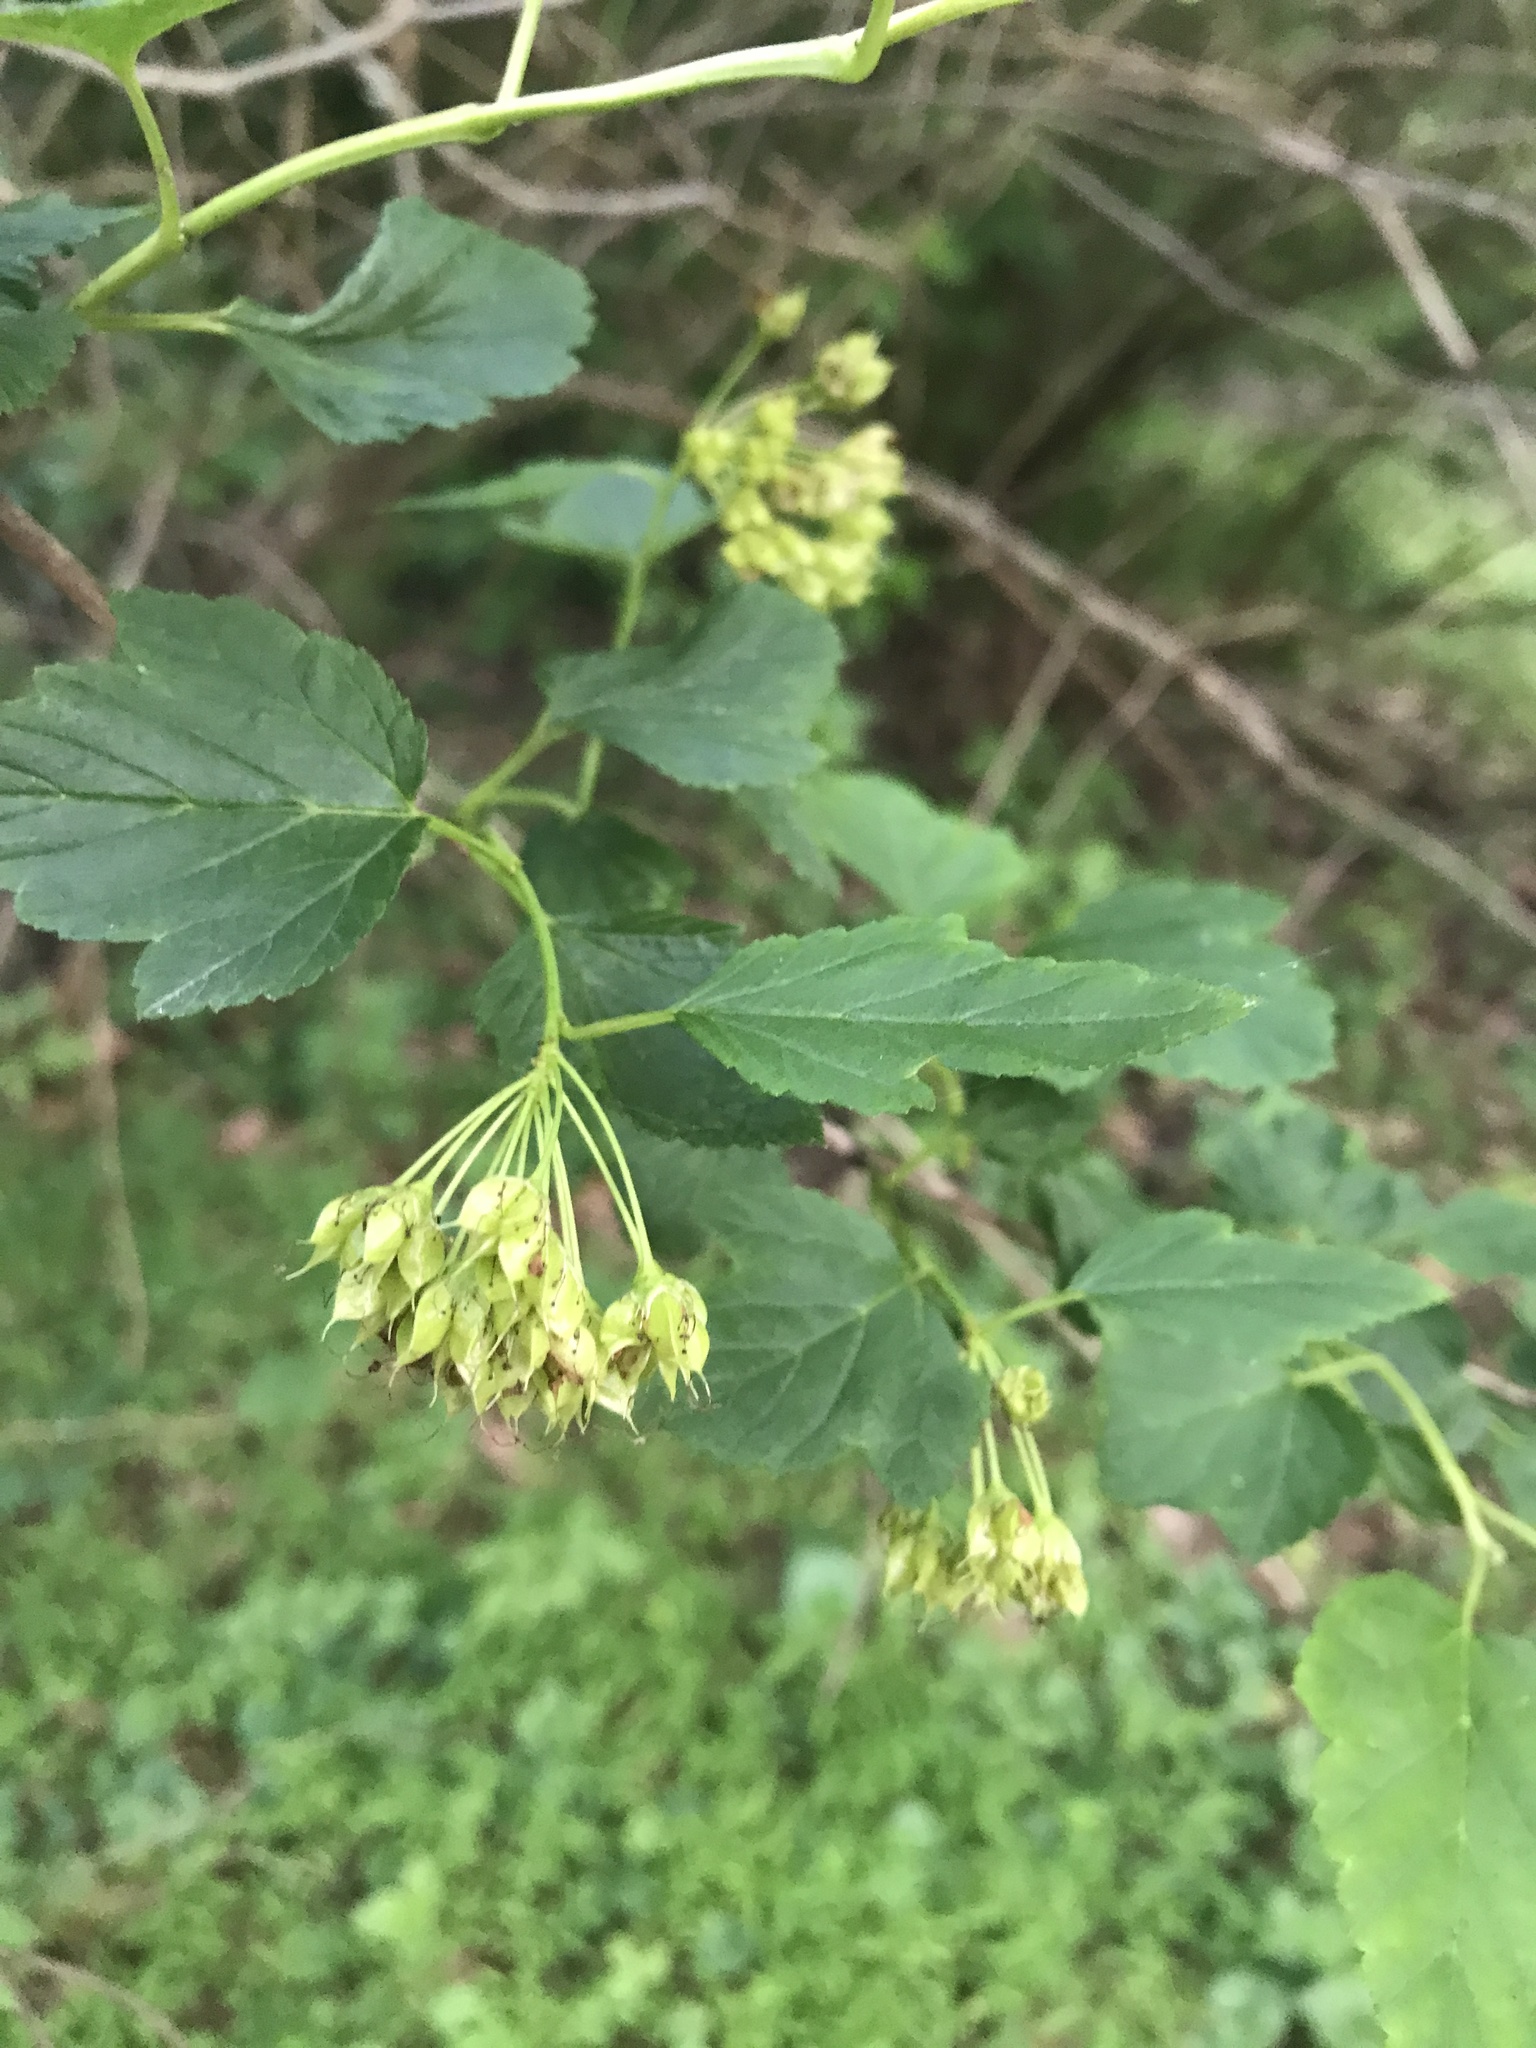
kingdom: Plantae
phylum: Tracheophyta
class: Magnoliopsida
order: Rosales
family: Rosaceae
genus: Physocarpus
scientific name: Physocarpus opulifolius
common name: Ninebark
